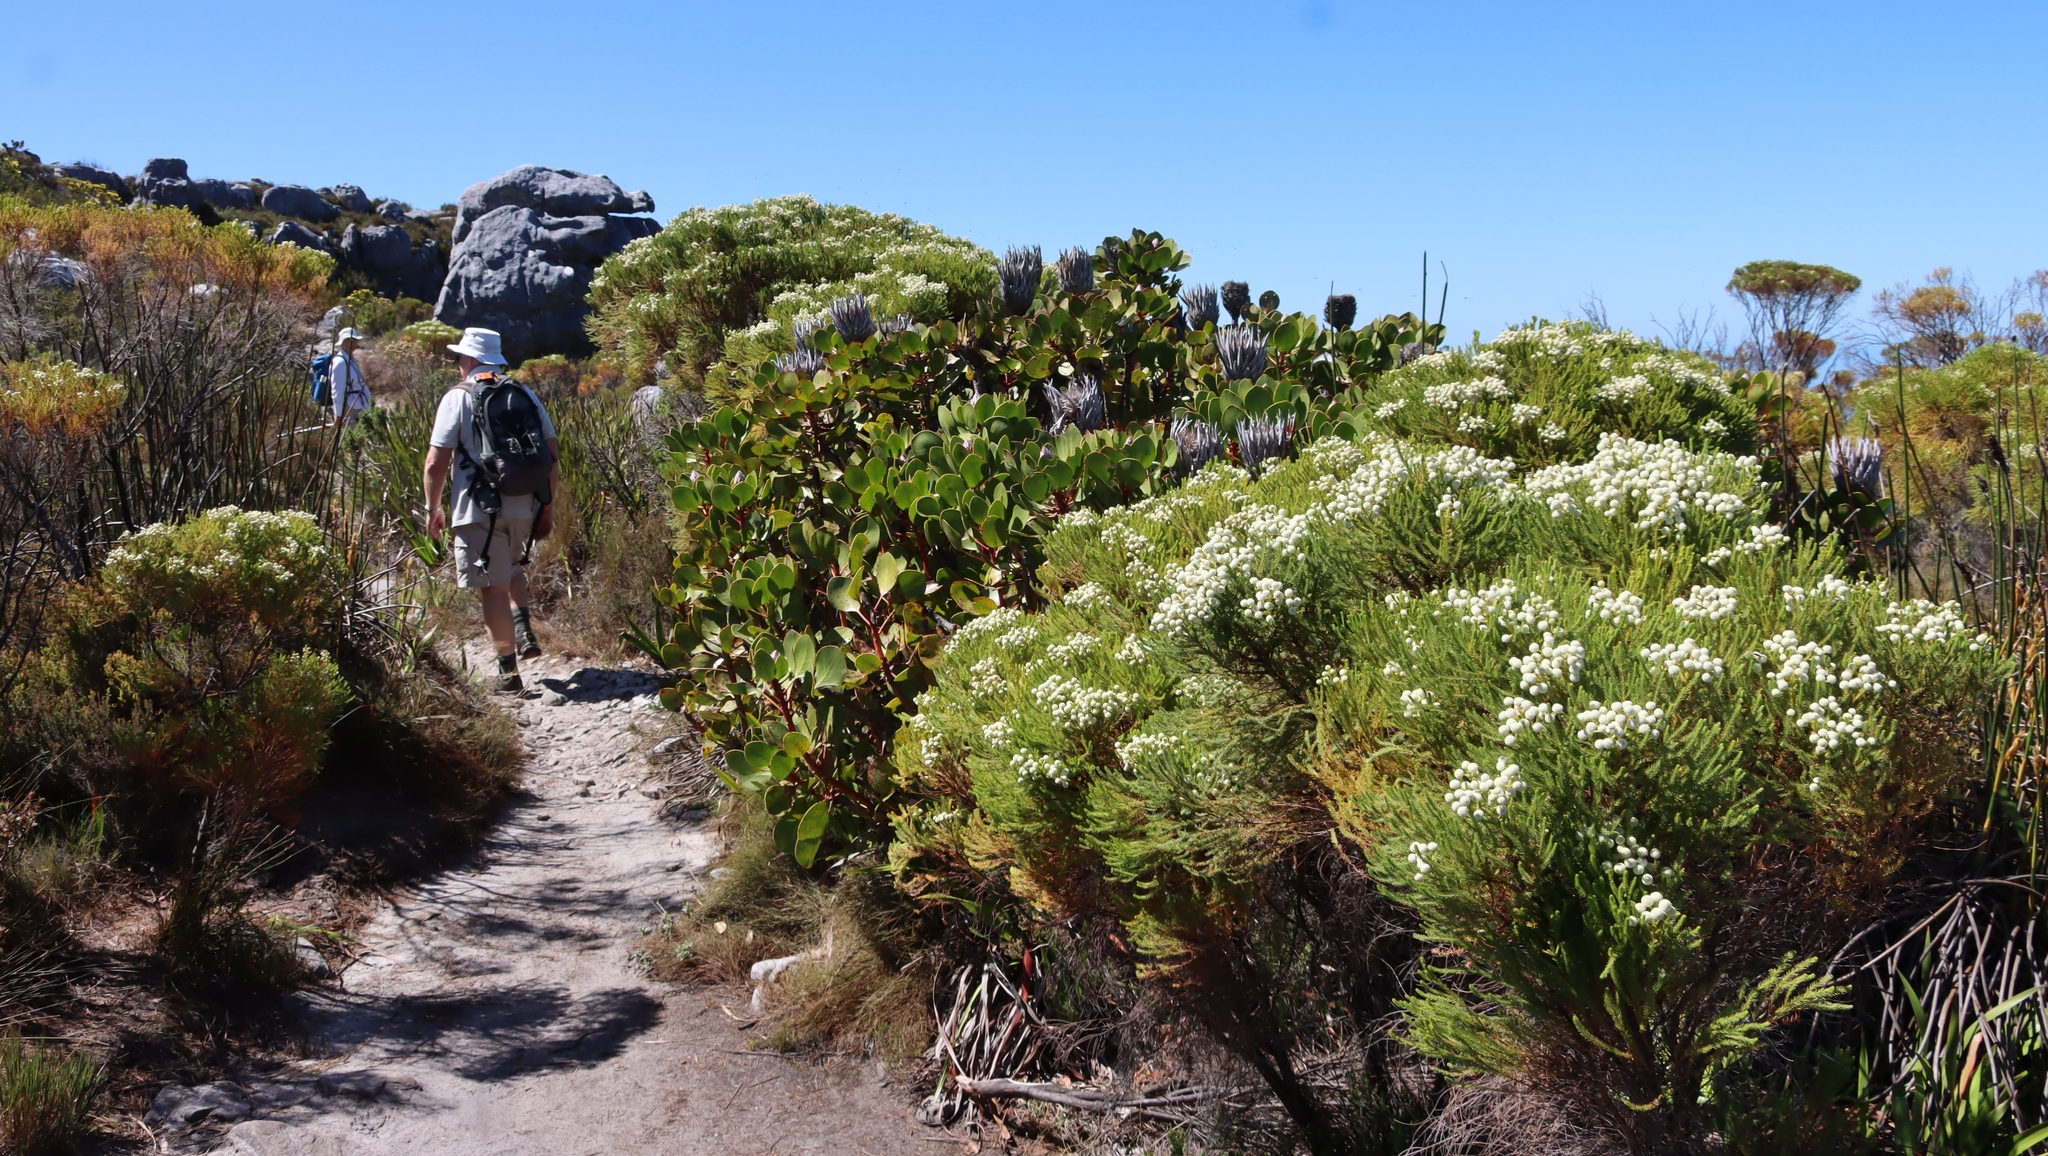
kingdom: Plantae
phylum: Tracheophyta
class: Magnoliopsida
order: Proteales
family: Proteaceae
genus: Protea
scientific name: Protea cynaroides
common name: King protea
